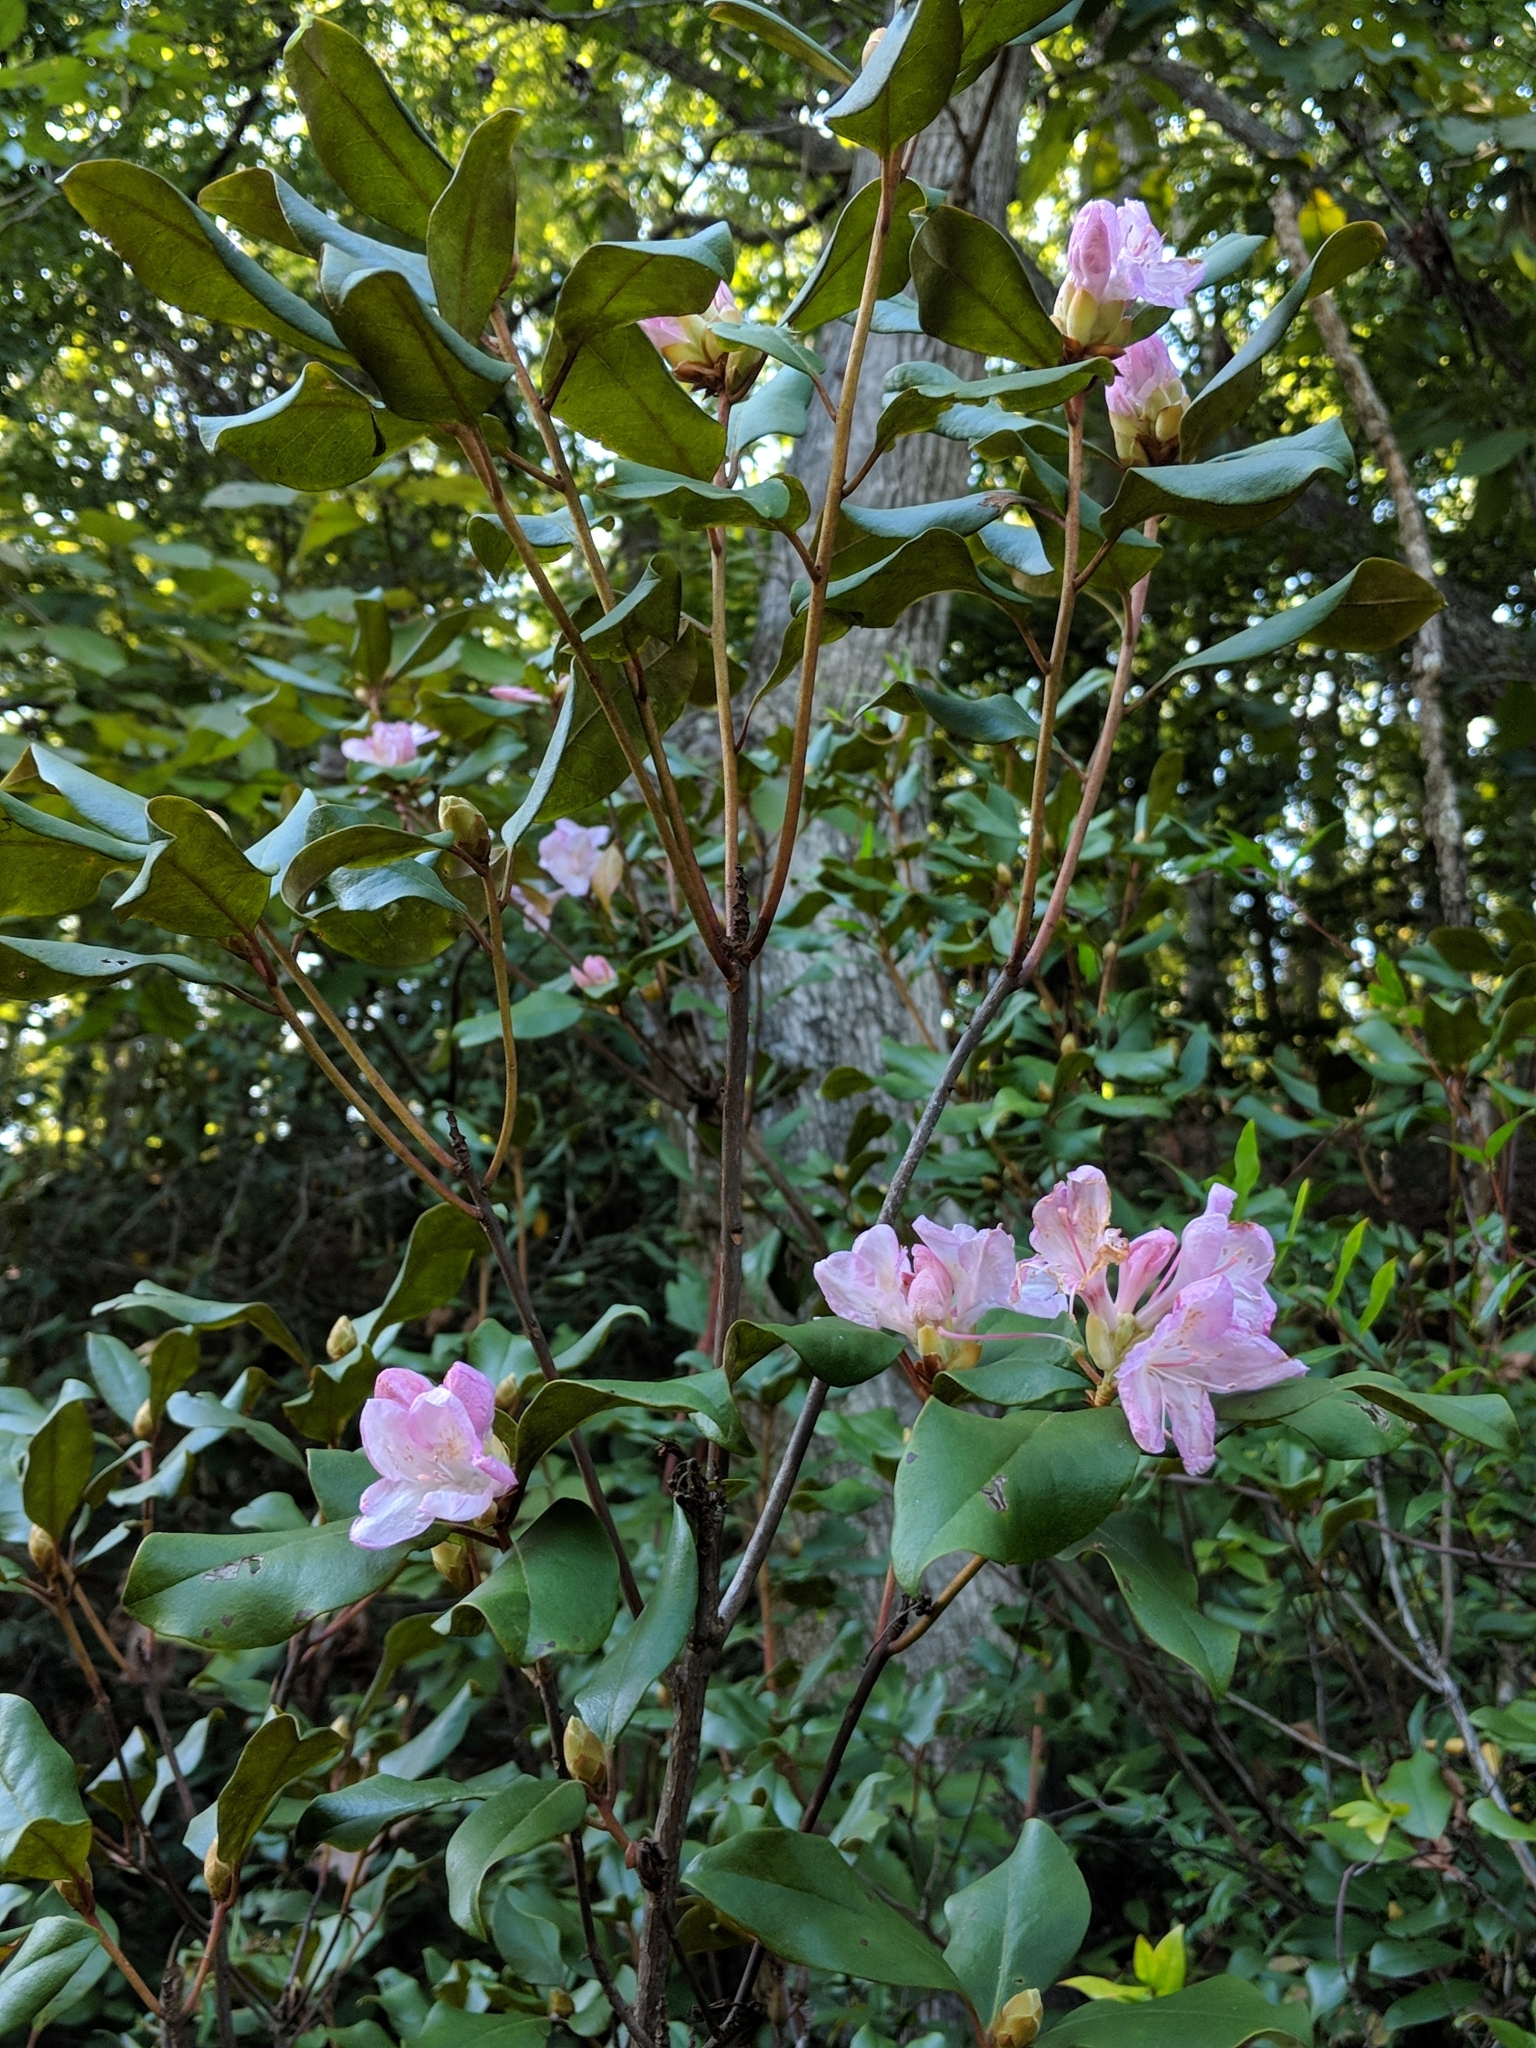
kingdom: Plantae
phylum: Tracheophyta
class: Magnoliopsida
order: Ericales
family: Ericaceae
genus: Rhododendron
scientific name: Rhododendron minus
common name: Piedmont rhododendron
